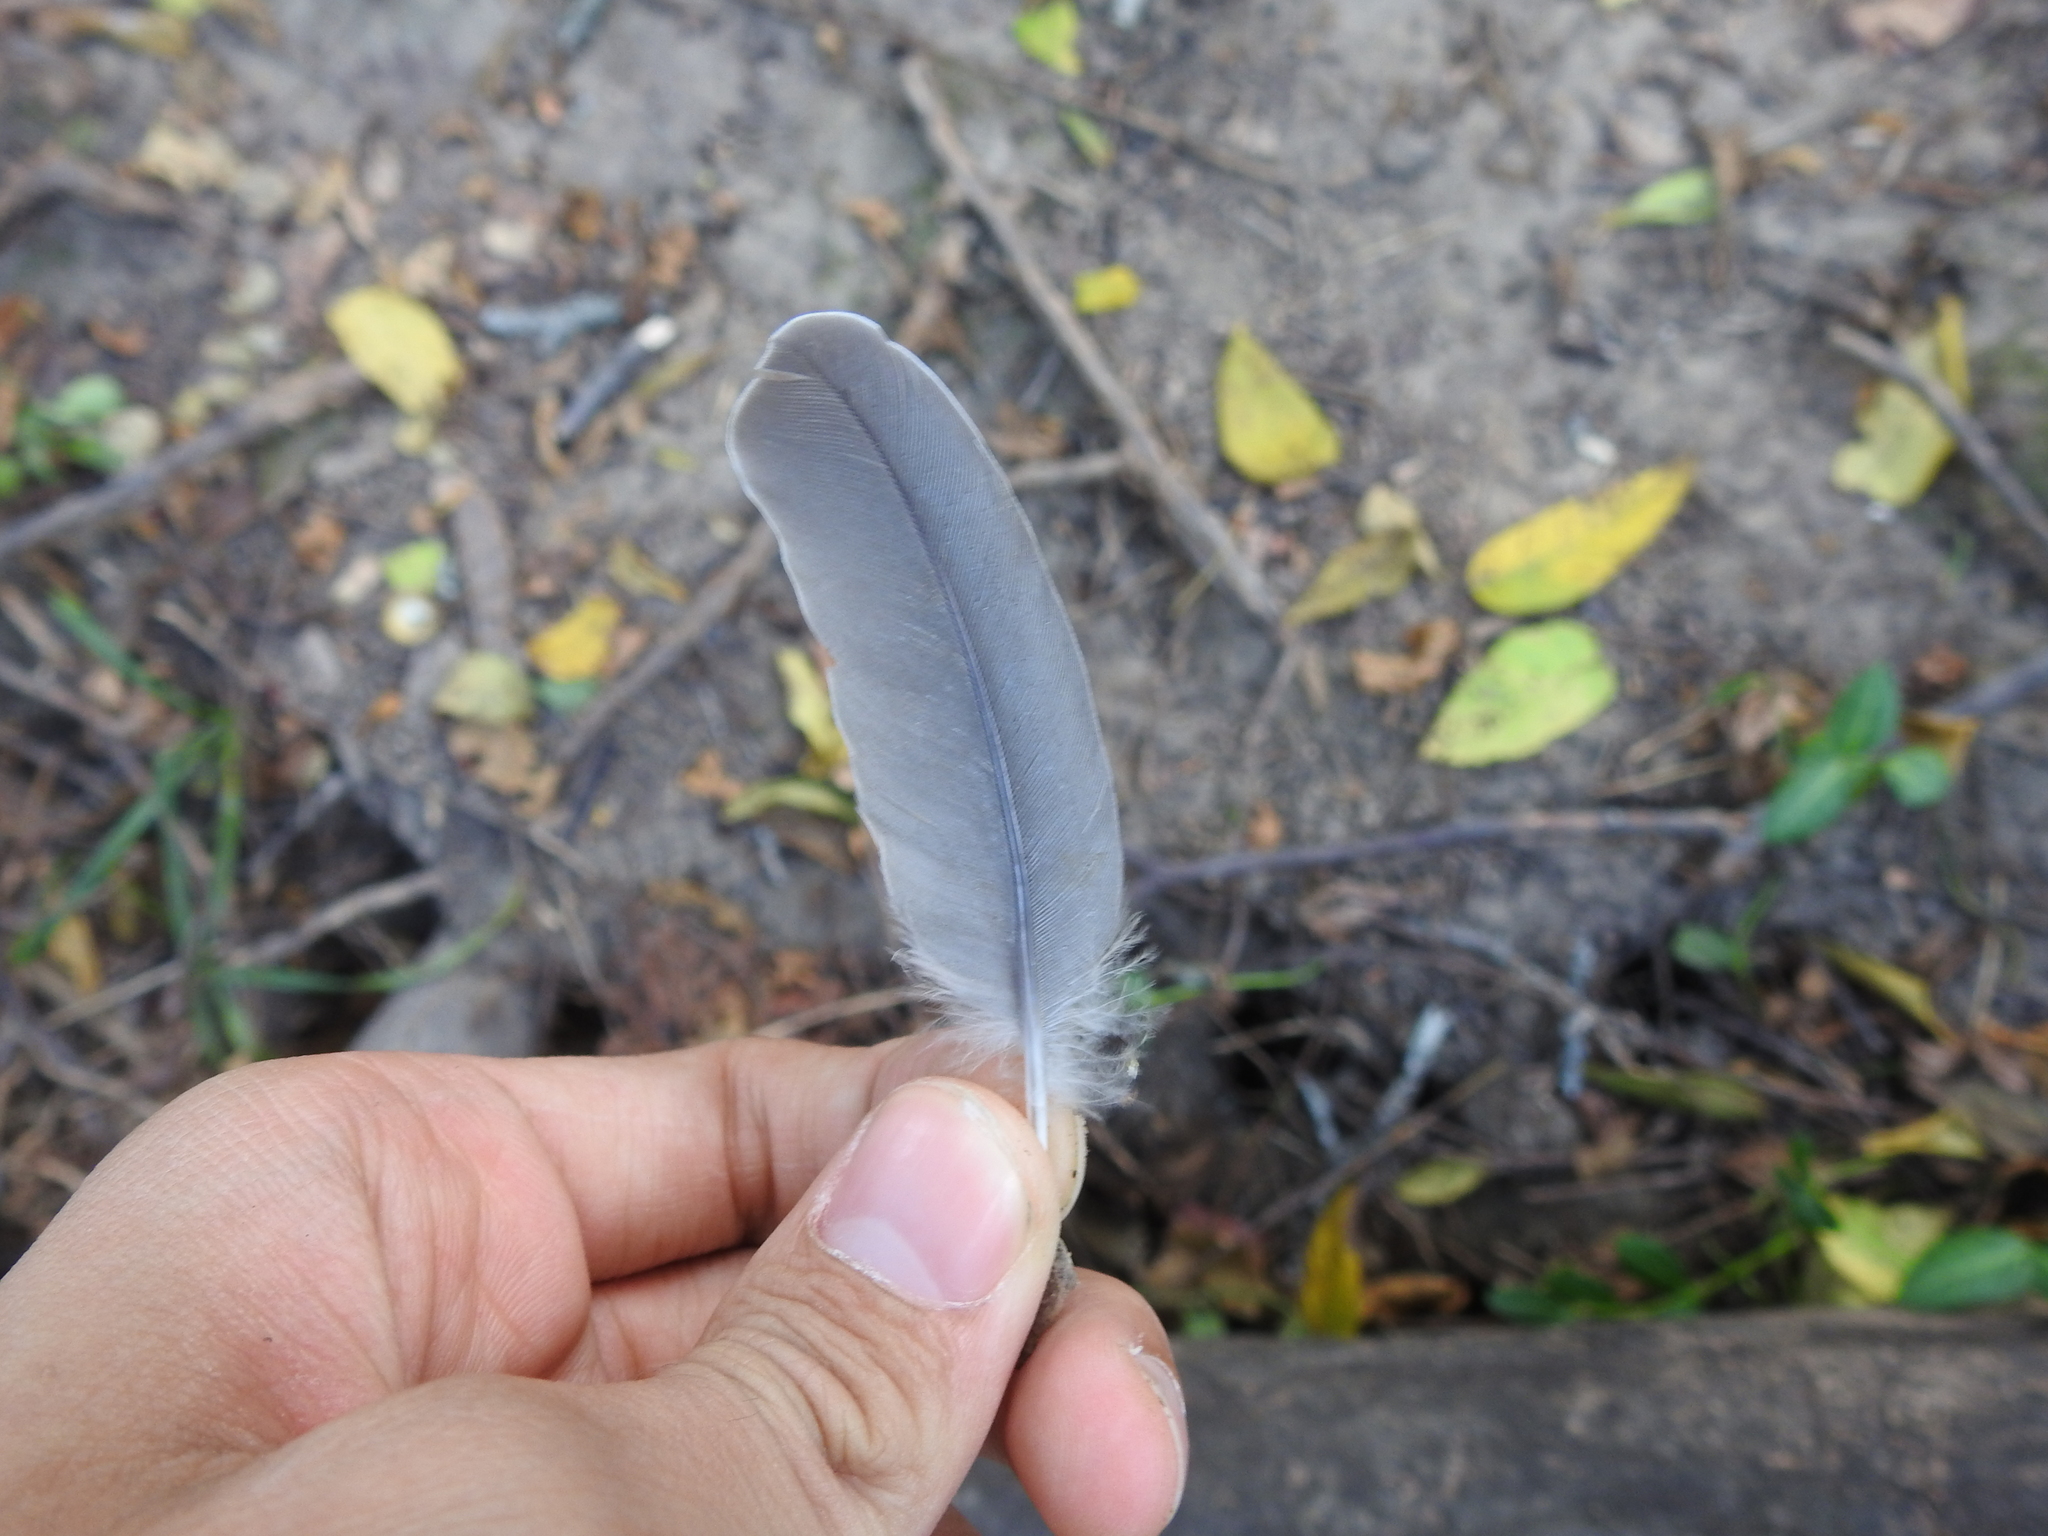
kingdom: Animalia
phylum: Chordata
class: Aves
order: Columbiformes
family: Columbidae
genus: Zenaida
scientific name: Zenaida macroura
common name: Mourning dove
